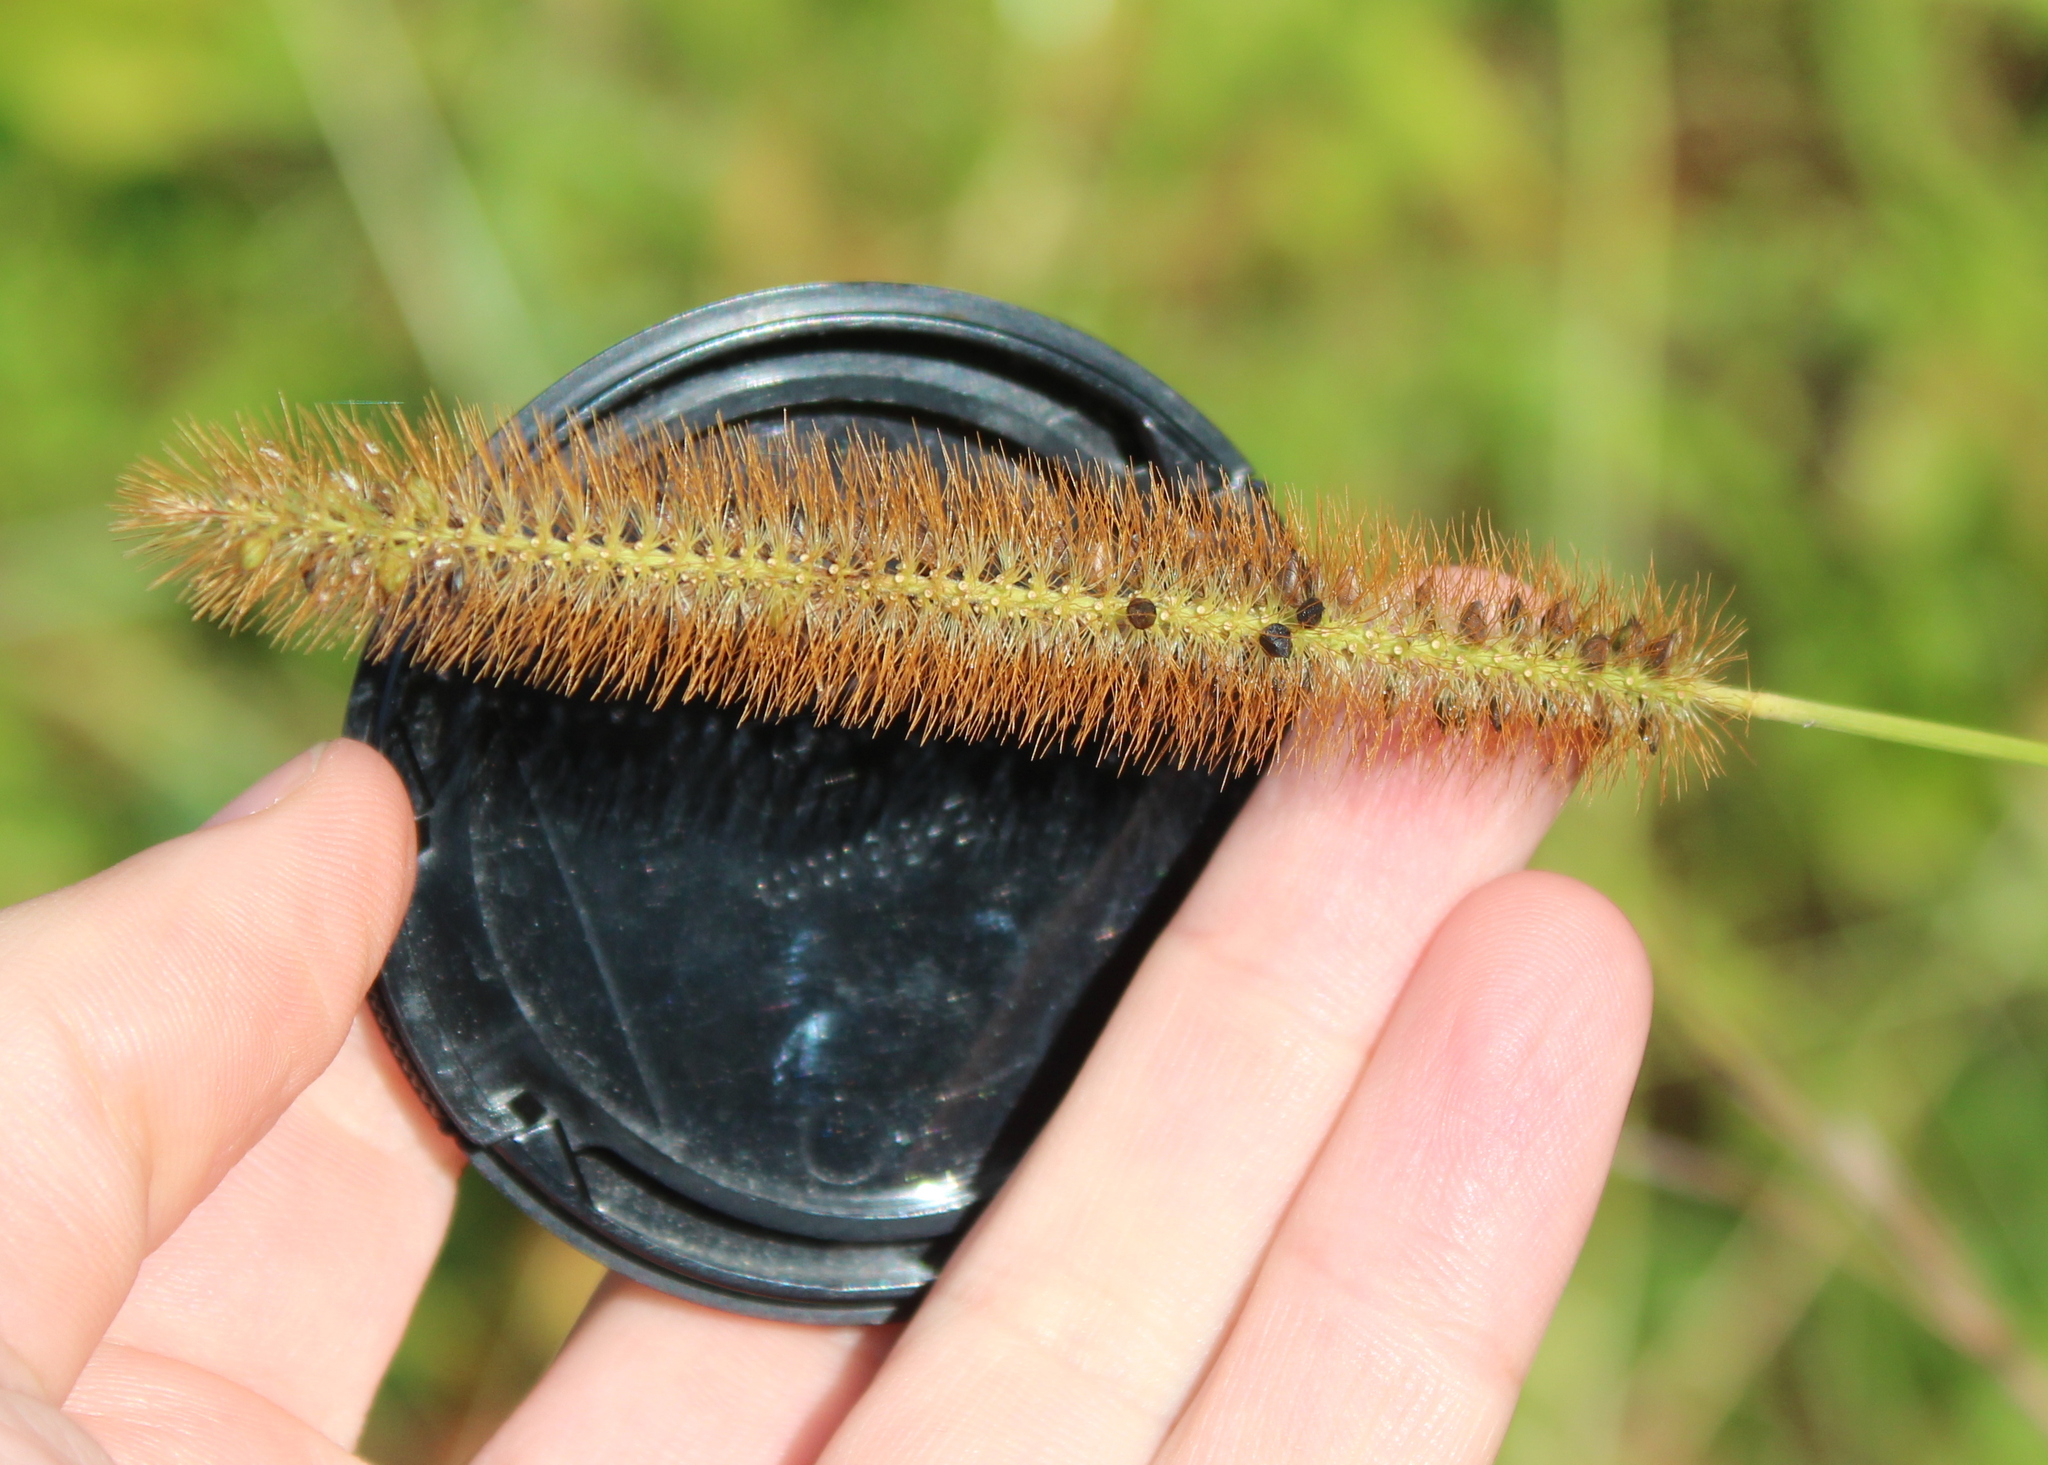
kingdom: Plantae
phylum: Tracheophyta
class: Liliopsida
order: Poales
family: Poaceae
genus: Setaria
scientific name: Setaria pumila
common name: Yellow bristle-grass
